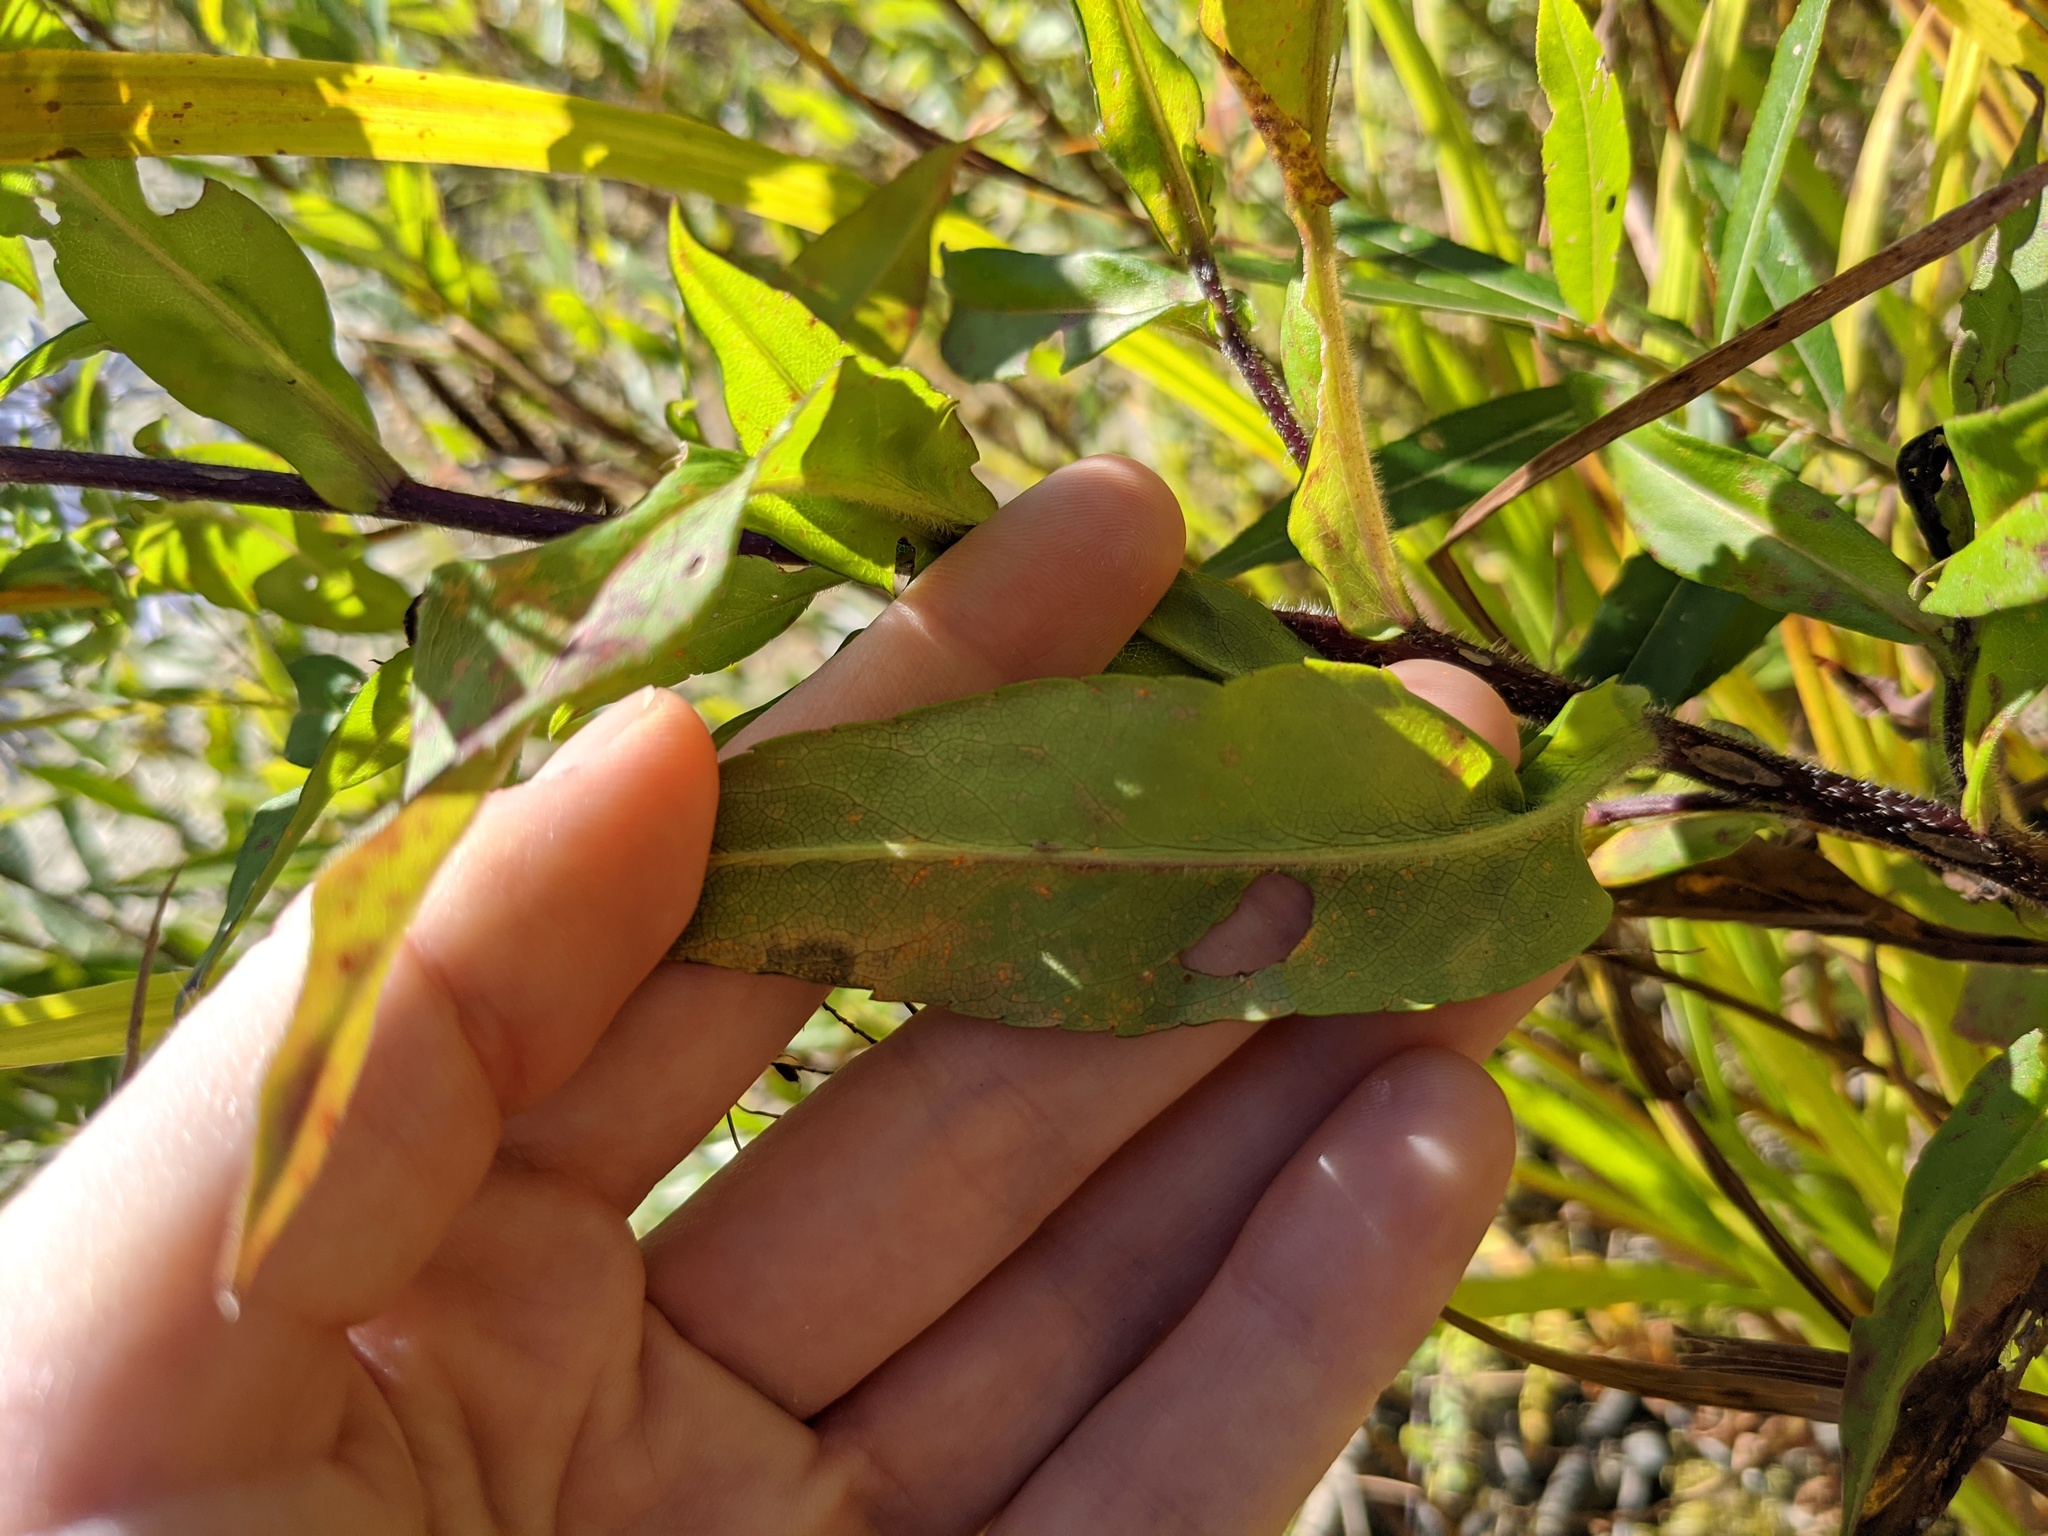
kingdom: Plantae
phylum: Tracheophyta
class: Magnoliopsida
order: Asterales
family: Asteraceae
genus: Symphyotrichum
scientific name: Symphyotrichum puniceum
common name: Bog aster
